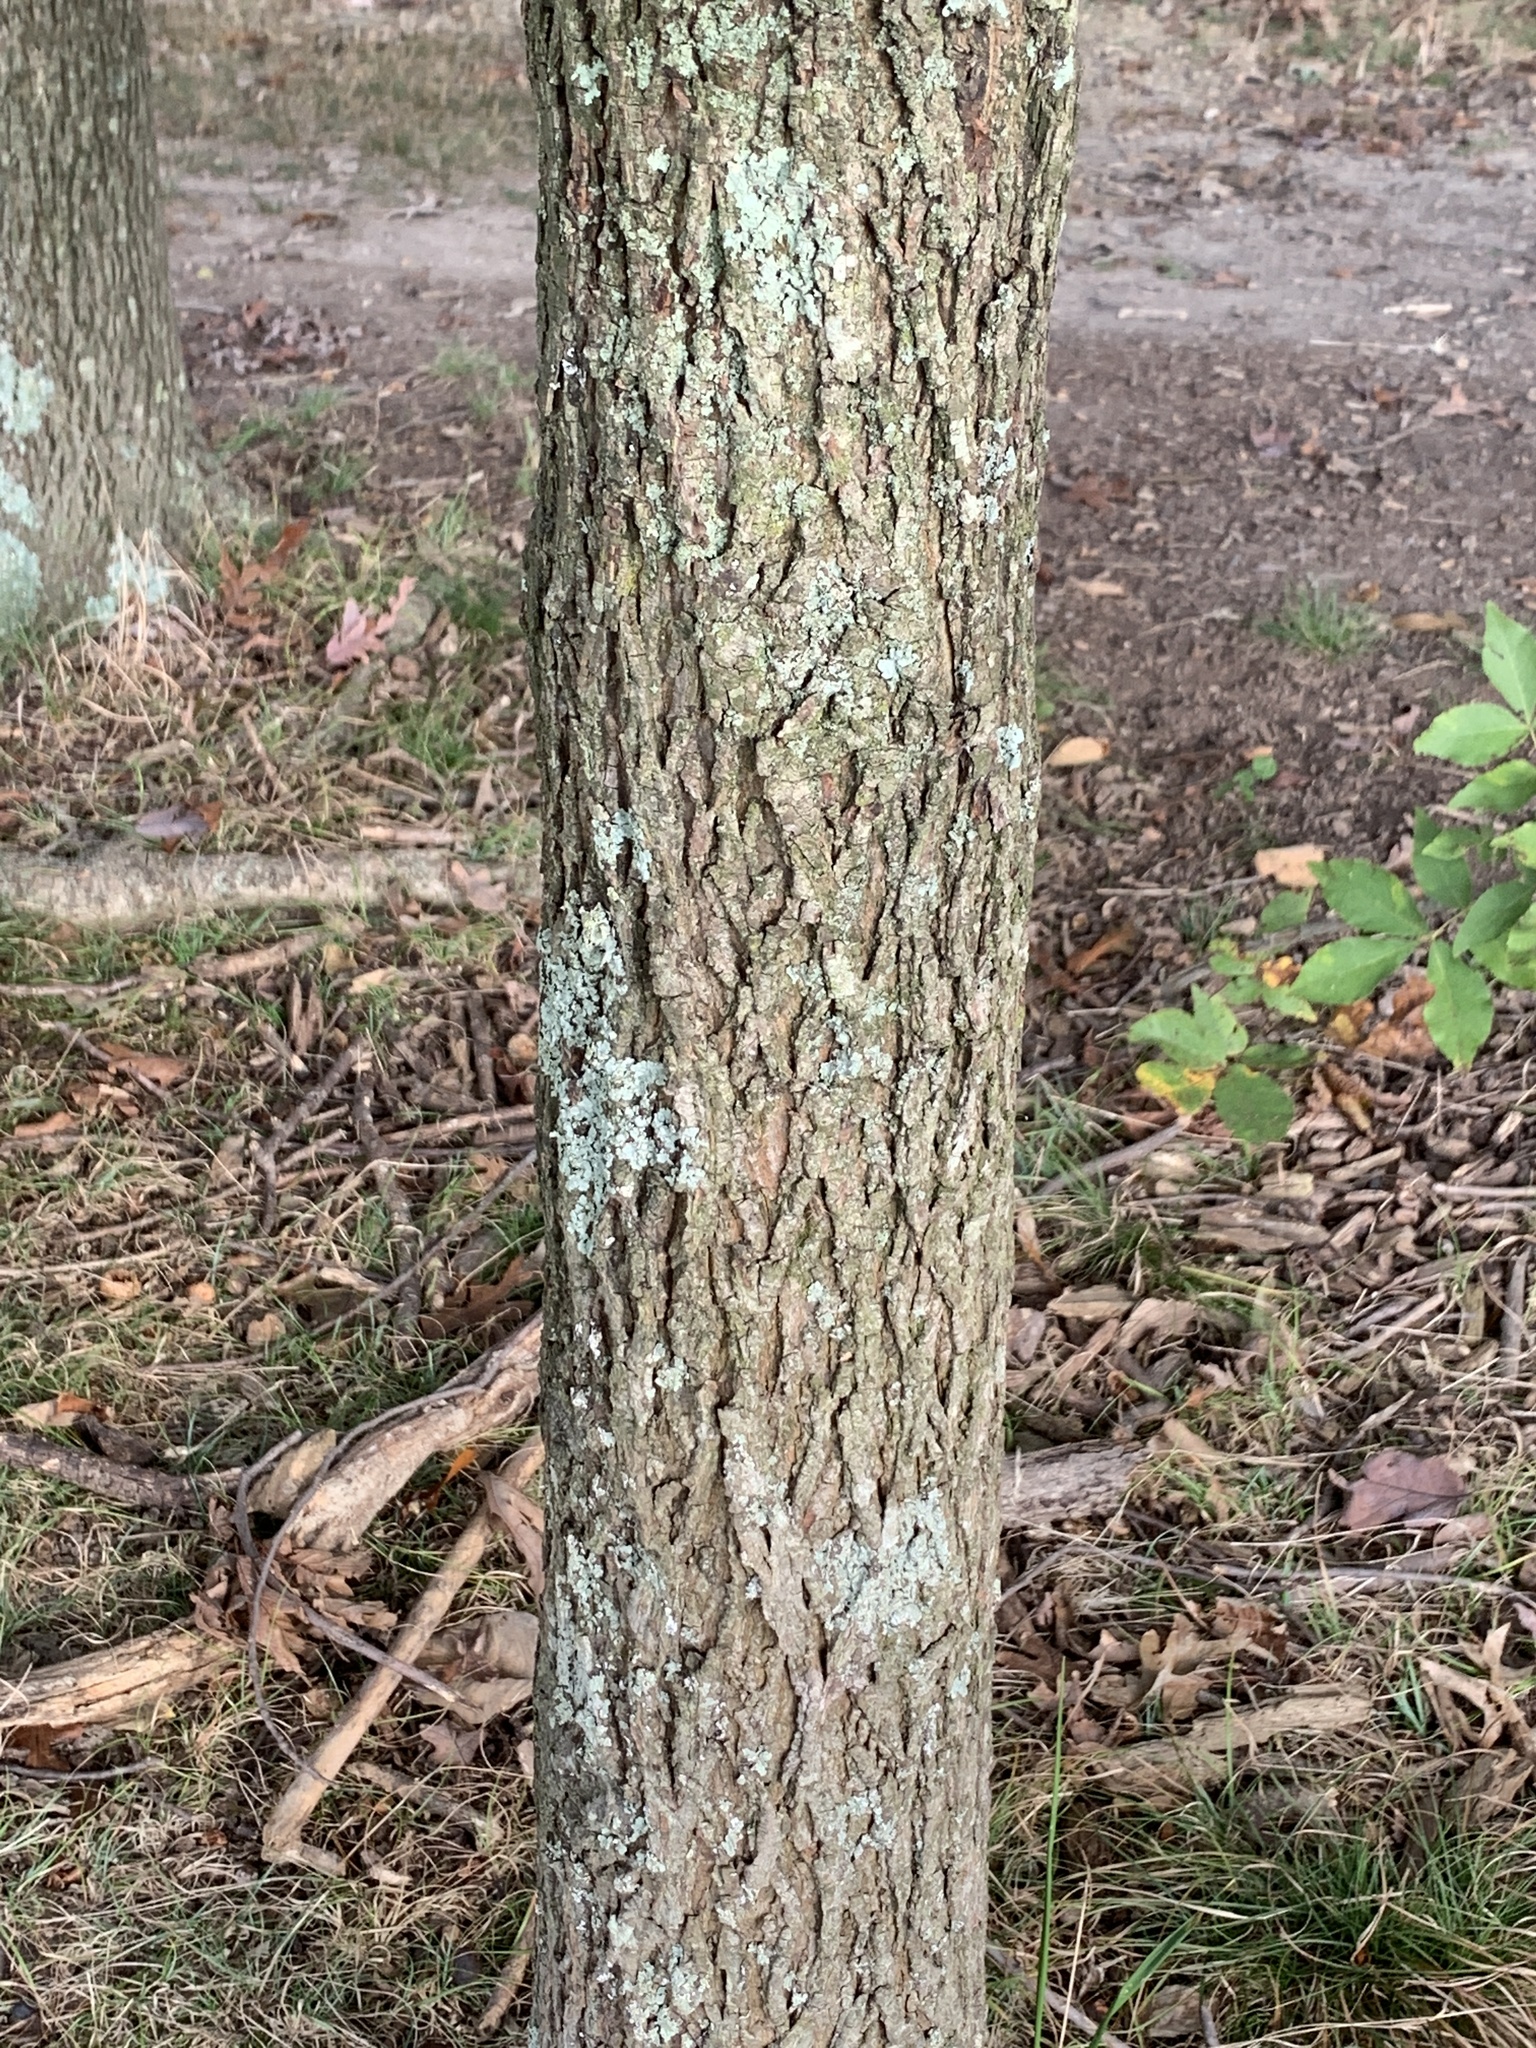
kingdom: Plantae
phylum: Tracheophyta
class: Magnoliopsida
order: Fagales
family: Juglandaceae
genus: Carya
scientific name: Carya glabra
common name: Pignut hickory
